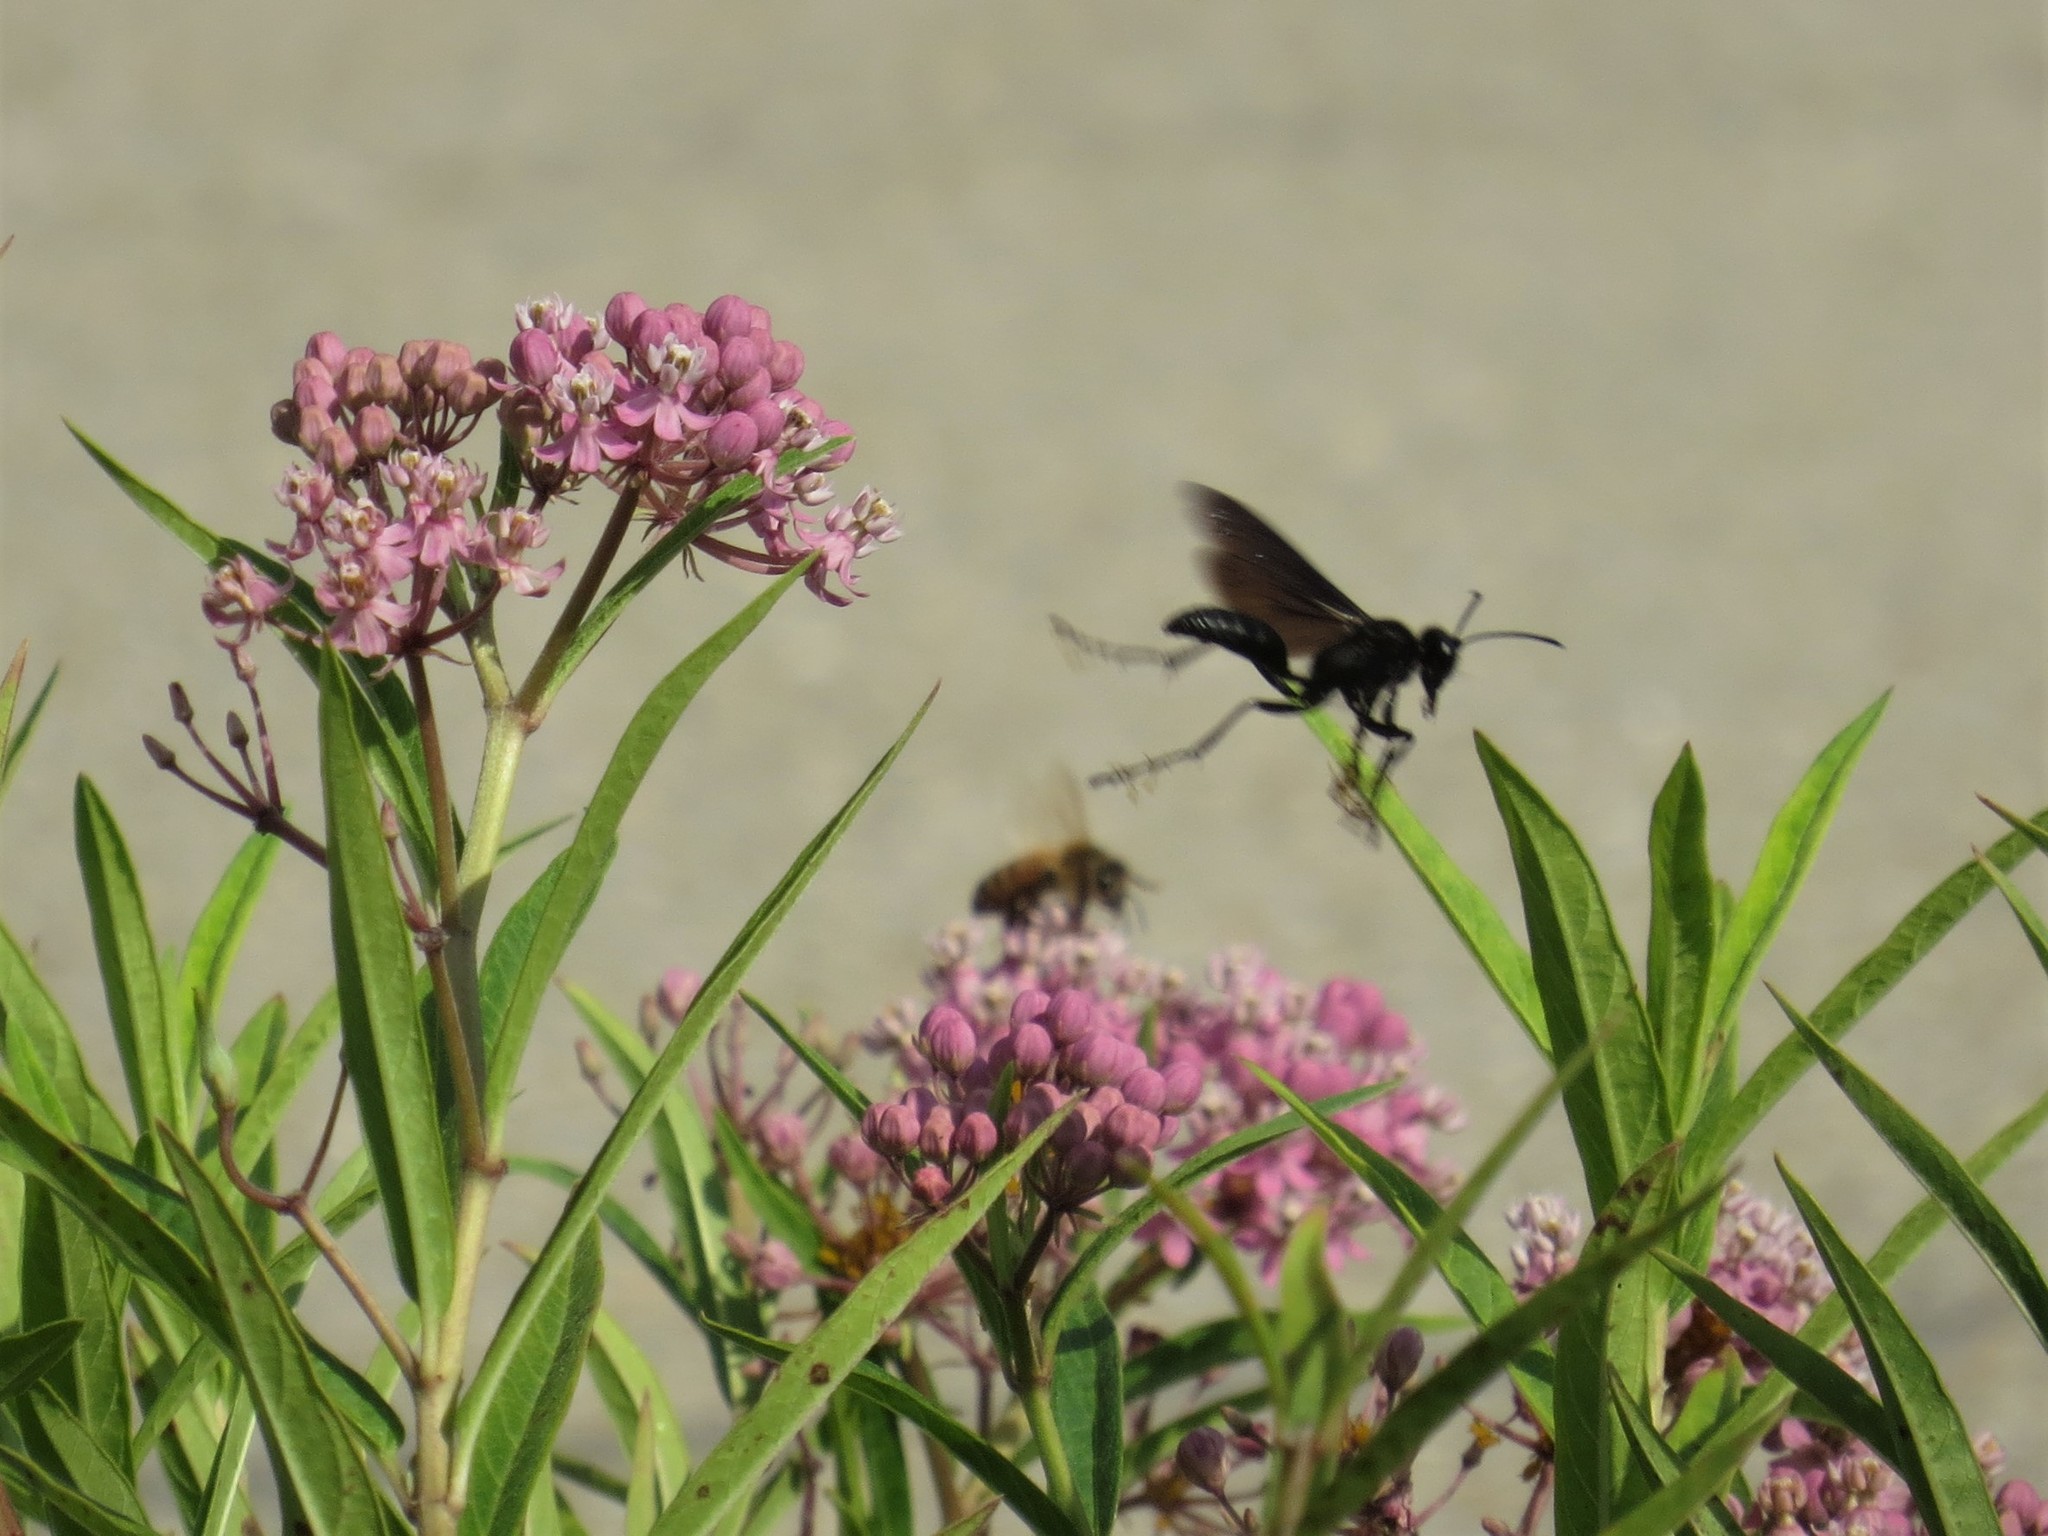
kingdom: Animalia
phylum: Arthropoda
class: Insecta
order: Hymenoptera
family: Sphecidae
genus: Sphex
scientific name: Sphex pensylvanicus
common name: Great black digger wasp
